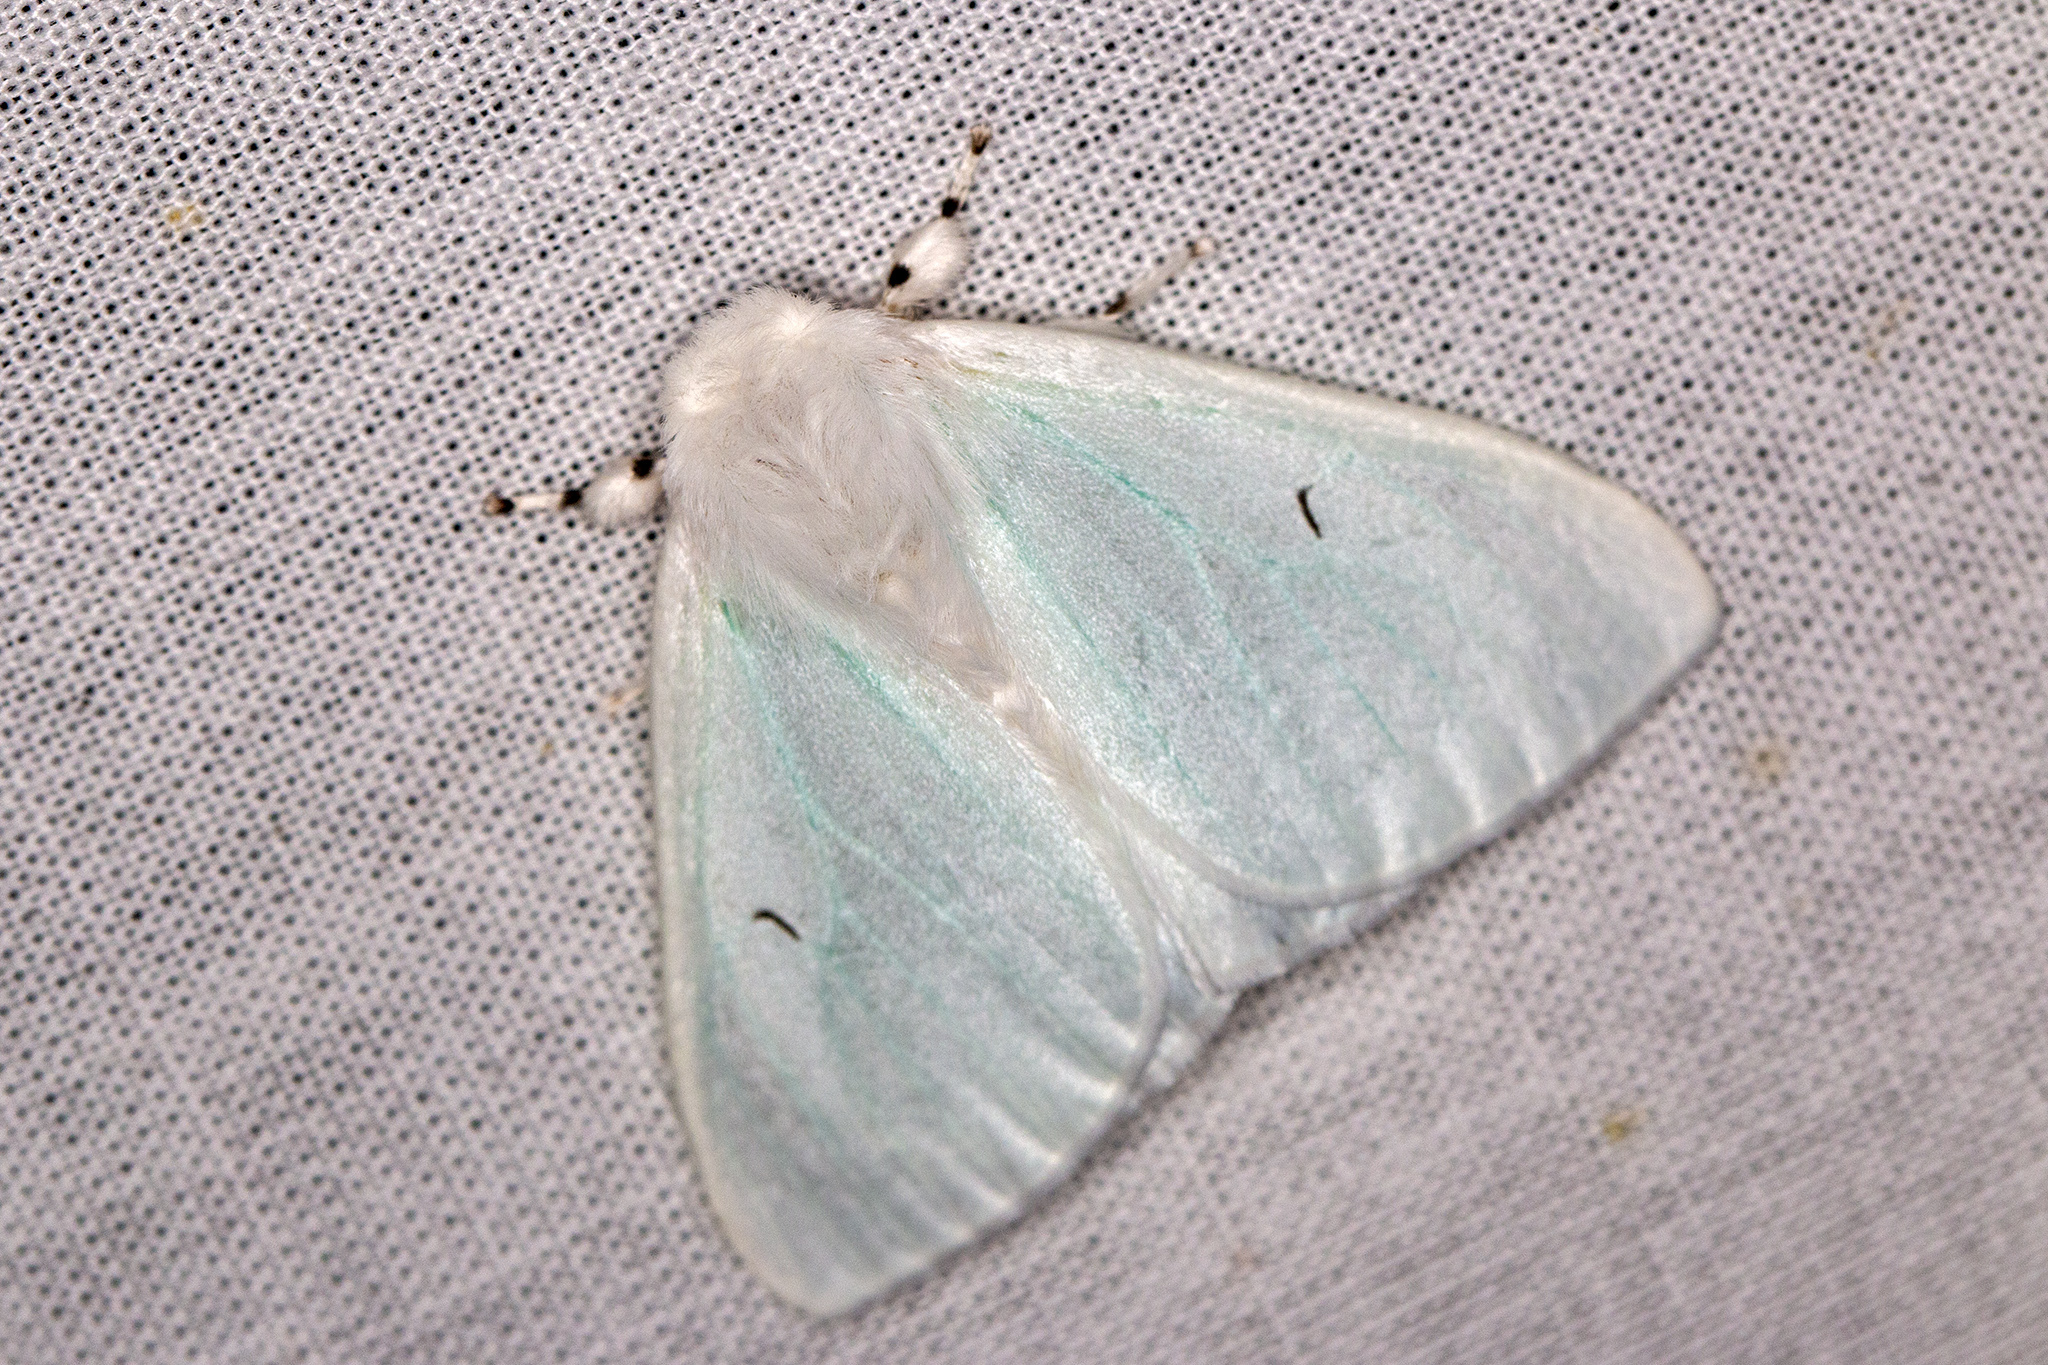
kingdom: Animalia
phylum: Arthropoda
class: Insecta
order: Lepidoptera
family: Erebidae
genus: Arctornis
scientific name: Arctornis l-nigrum
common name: Black v moth
